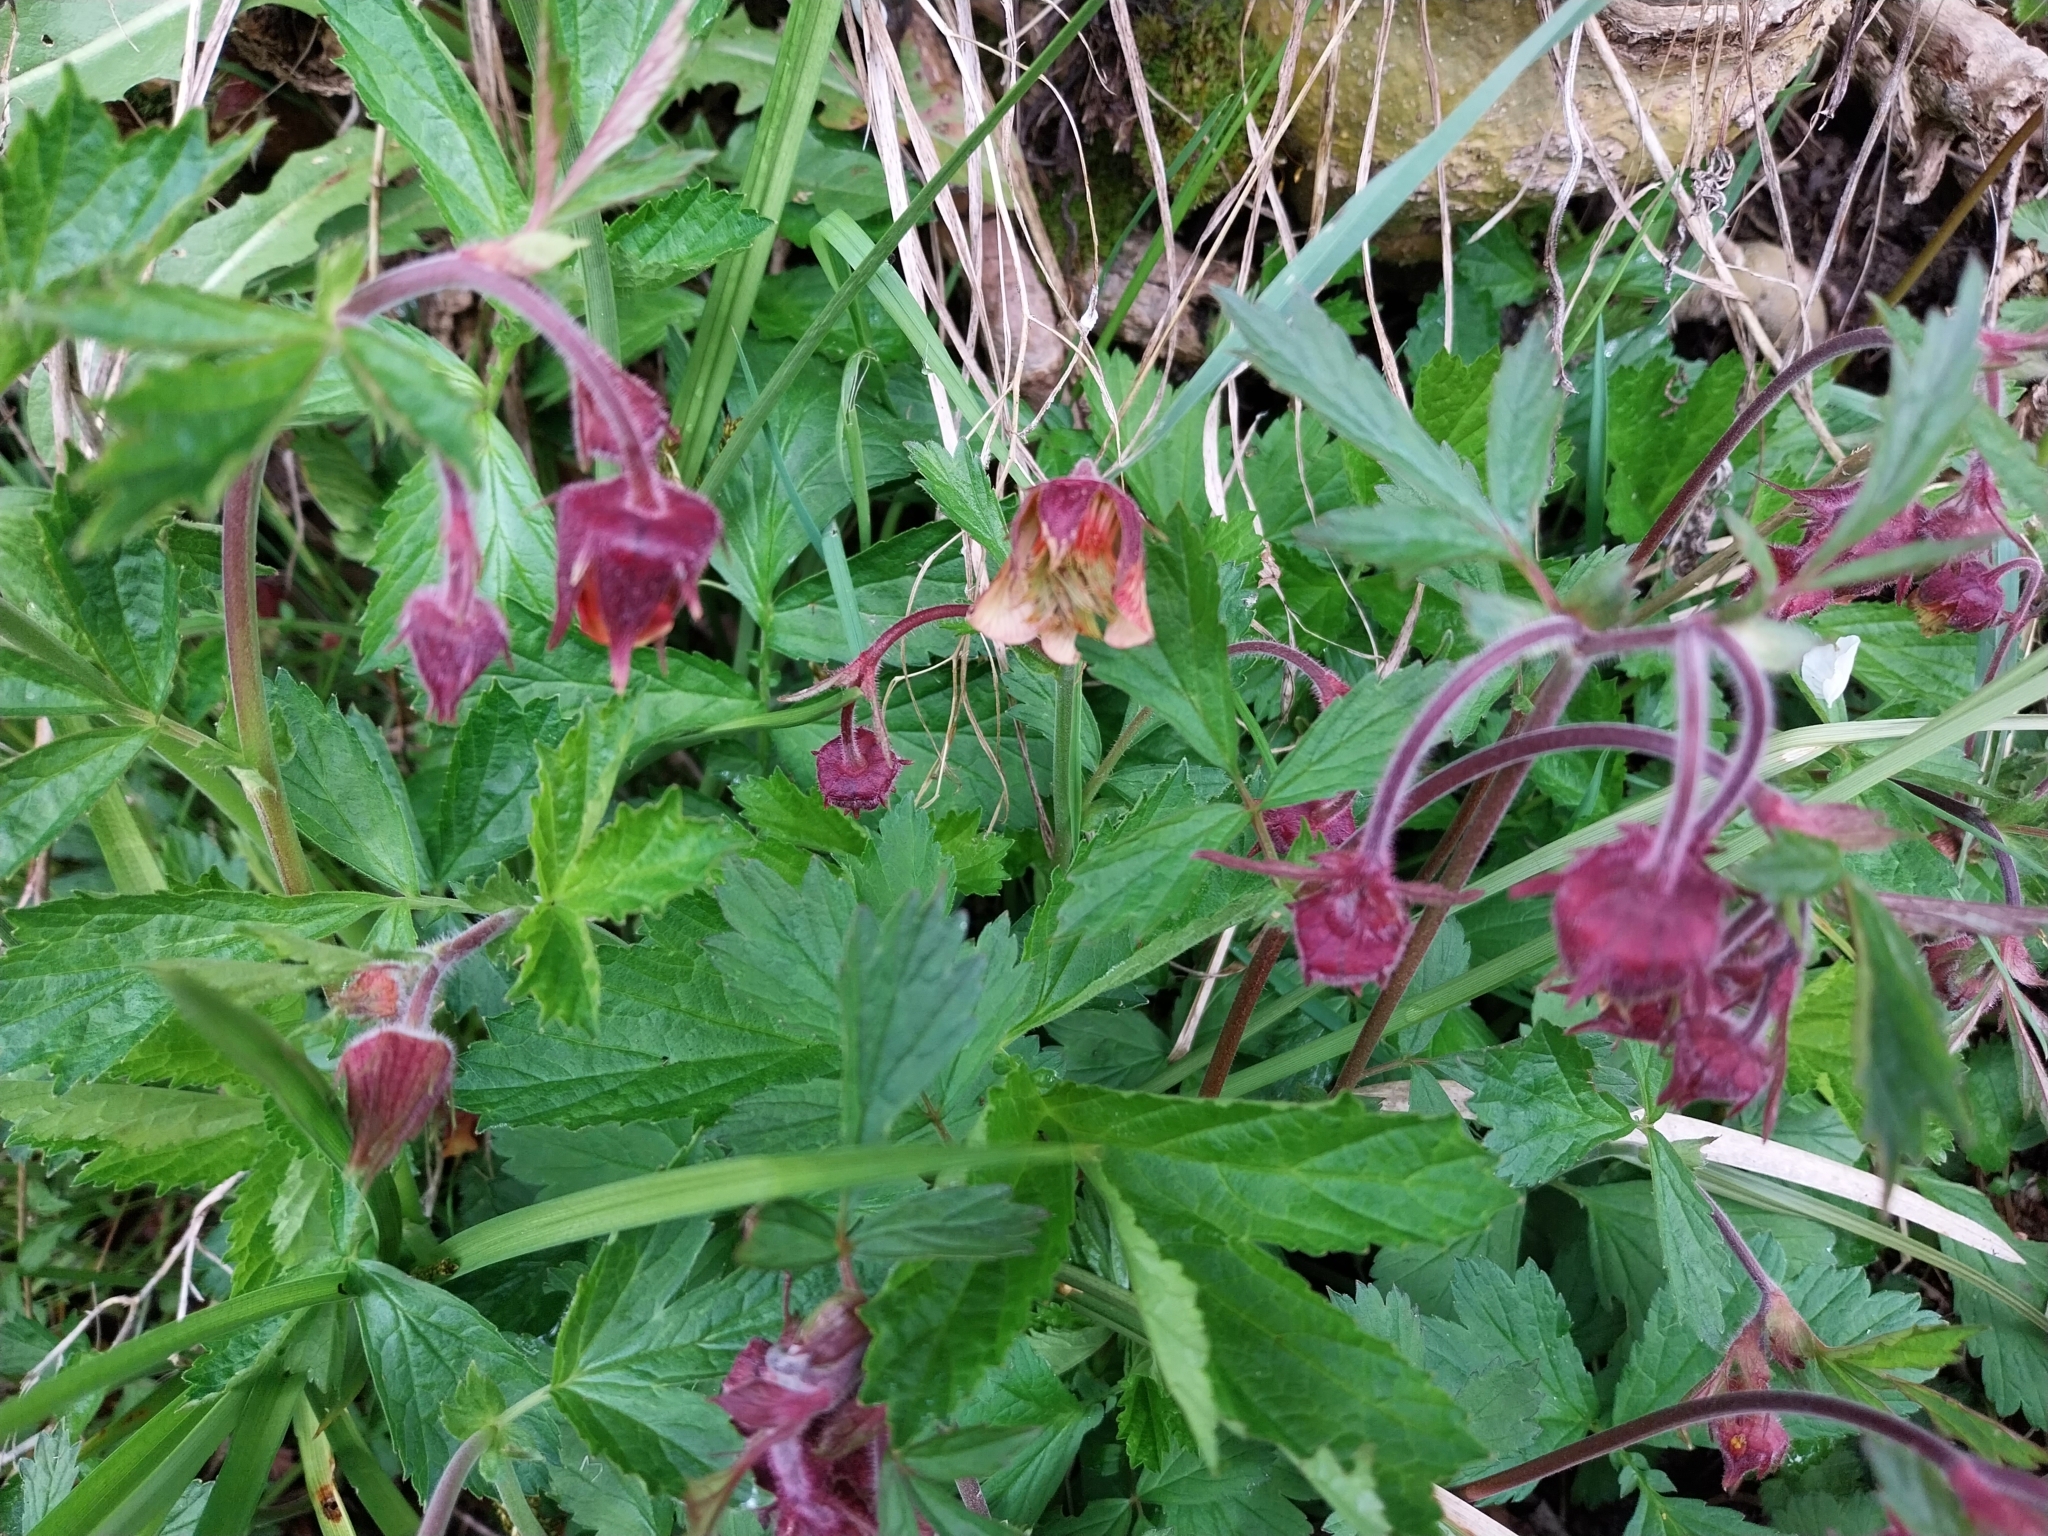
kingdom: Plantae
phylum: Tracheophyta
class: Magnoliopsida
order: Rosales
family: Rosaceae
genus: Geum
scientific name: Geum rivale
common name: Water avens
